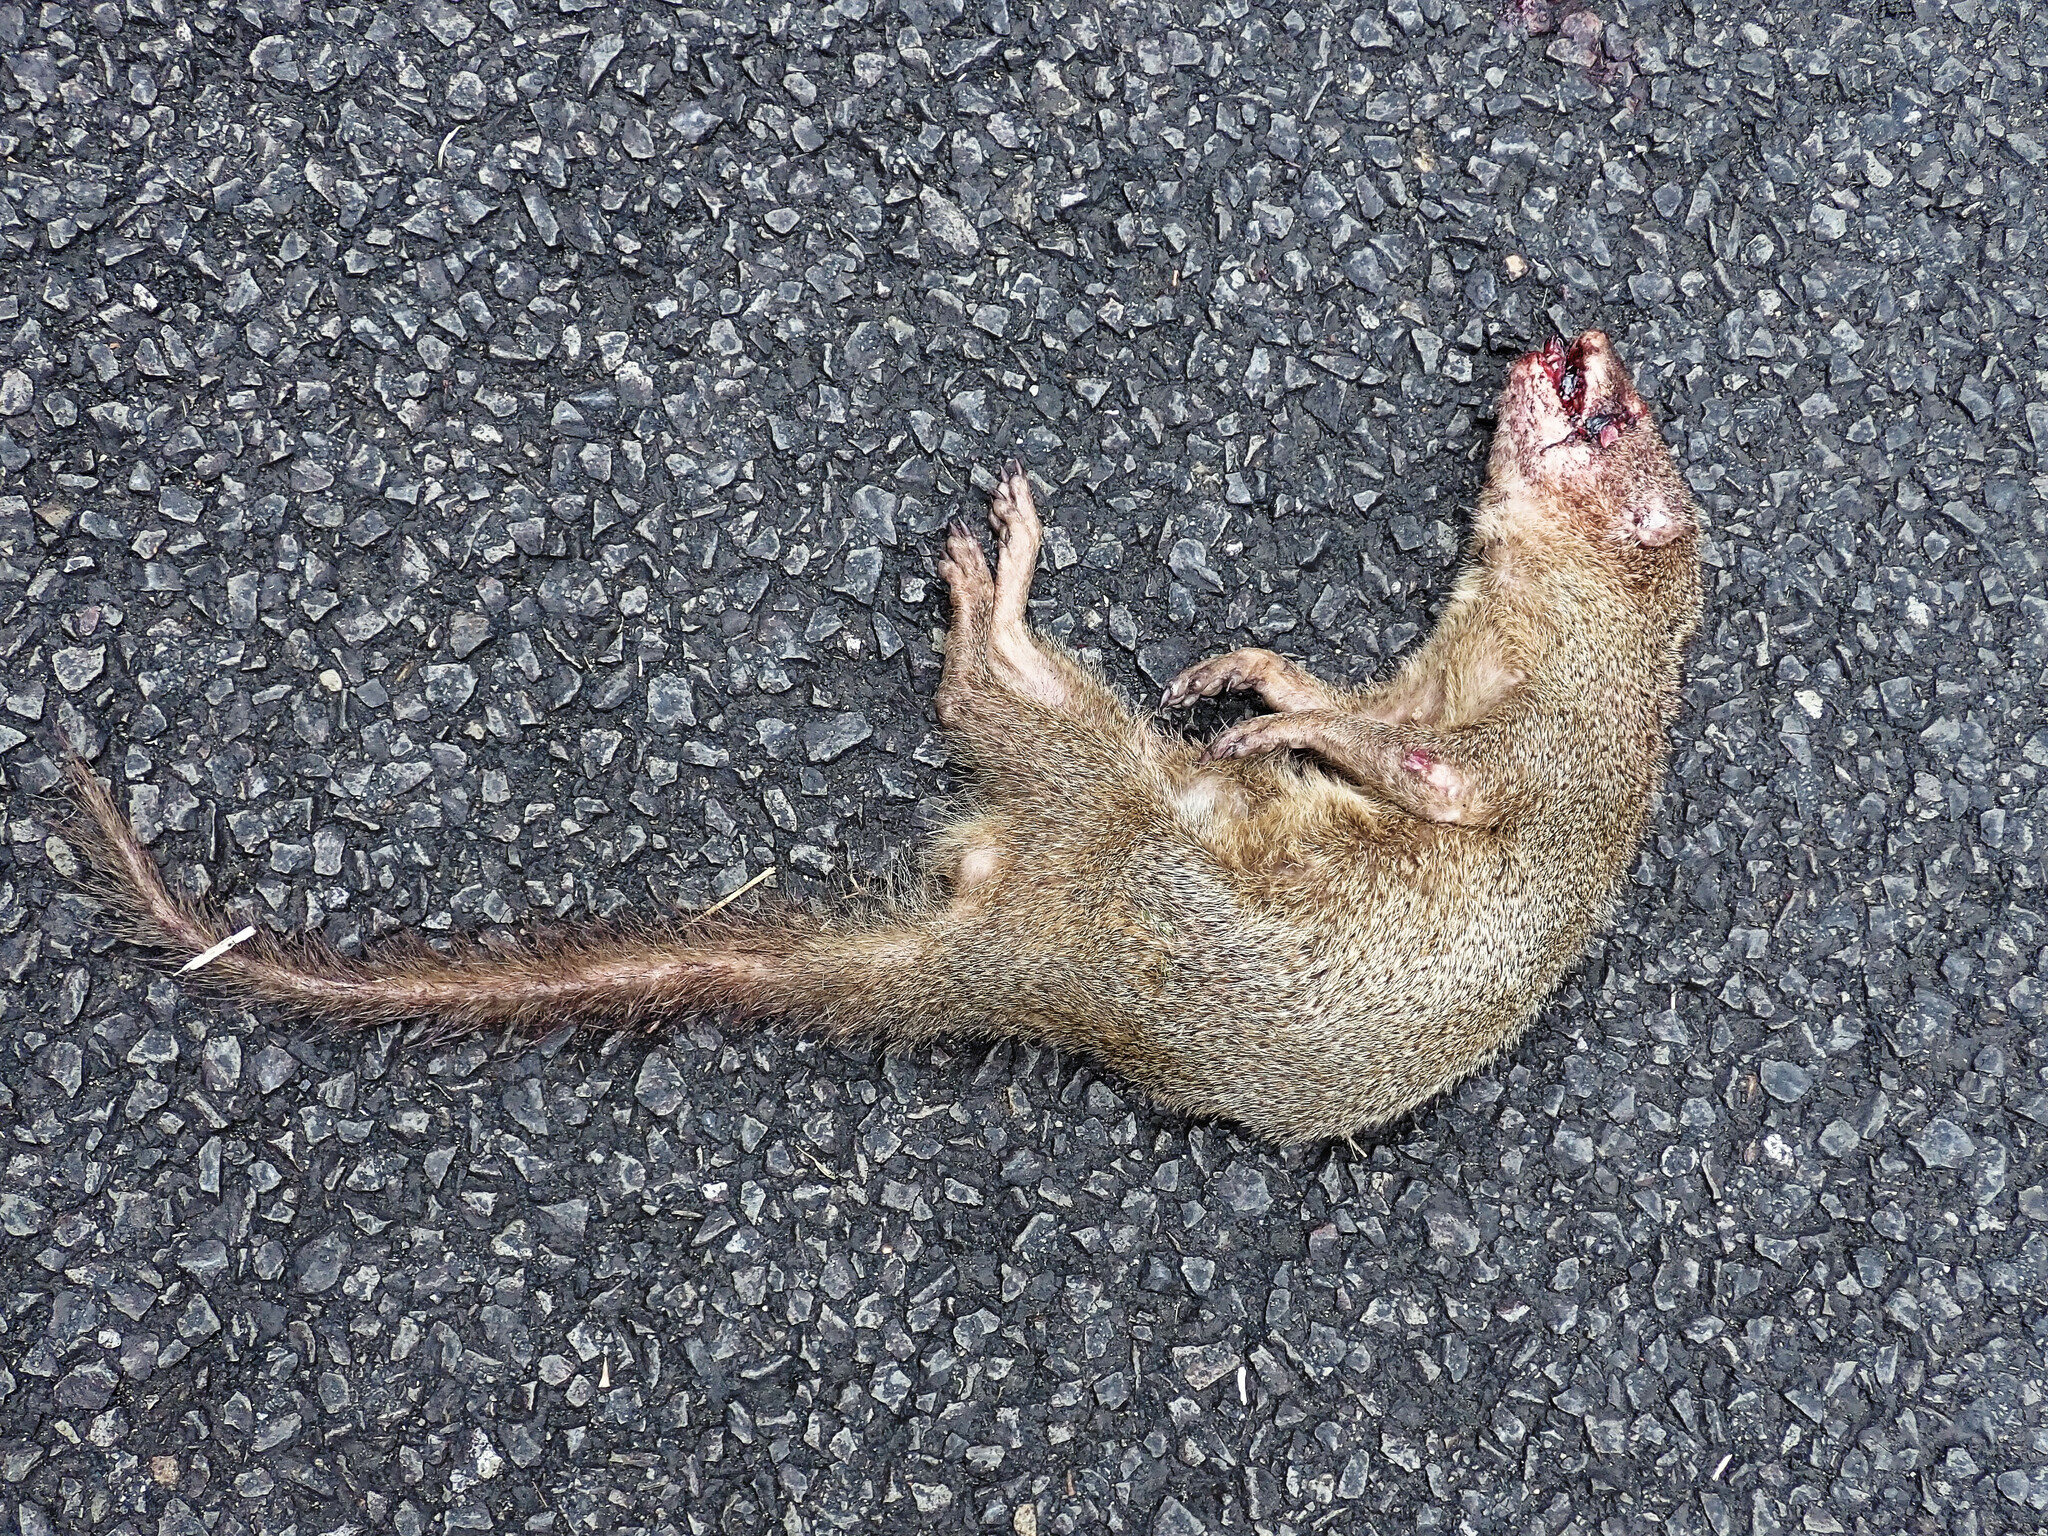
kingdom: Animalia
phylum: Chordata
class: Mammalia
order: Carnivora
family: Herpestidae
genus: Herpestes
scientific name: Herpestes javanicus
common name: Small asian mongoose
